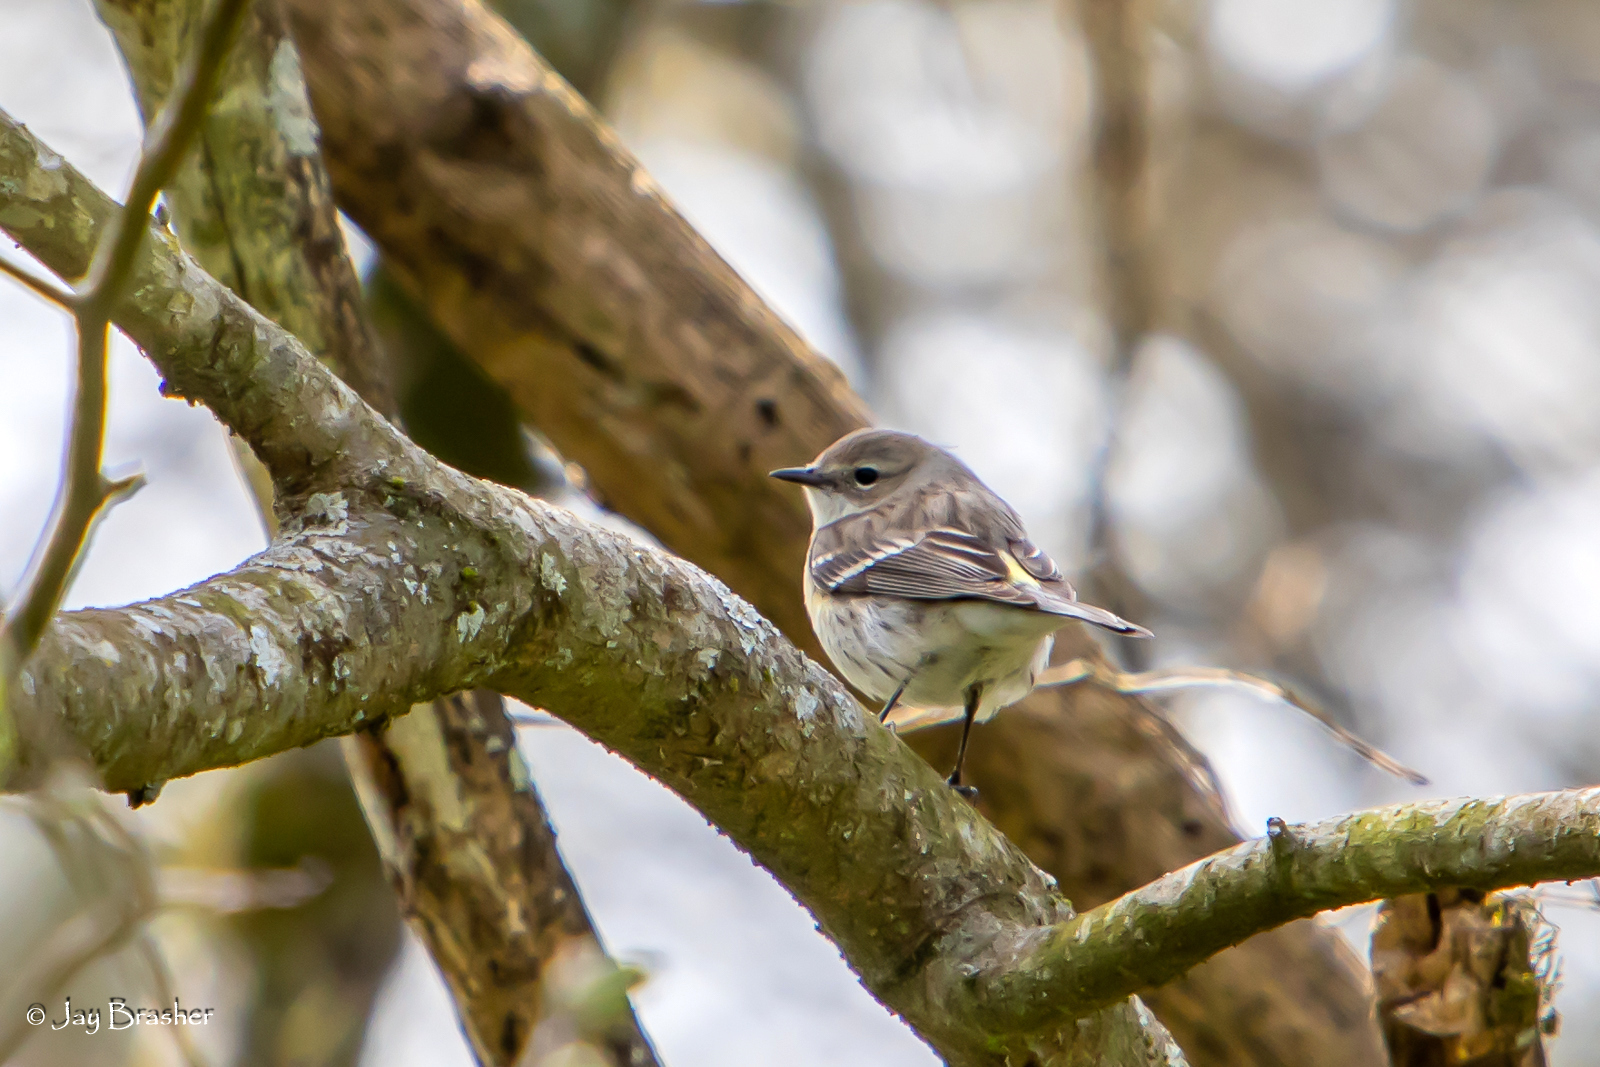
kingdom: Animalia
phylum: Chordata
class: Aves
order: Passeriformes
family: Parulidae
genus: Setophaga
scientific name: Setophaga coronata
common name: Myrtle warbler
